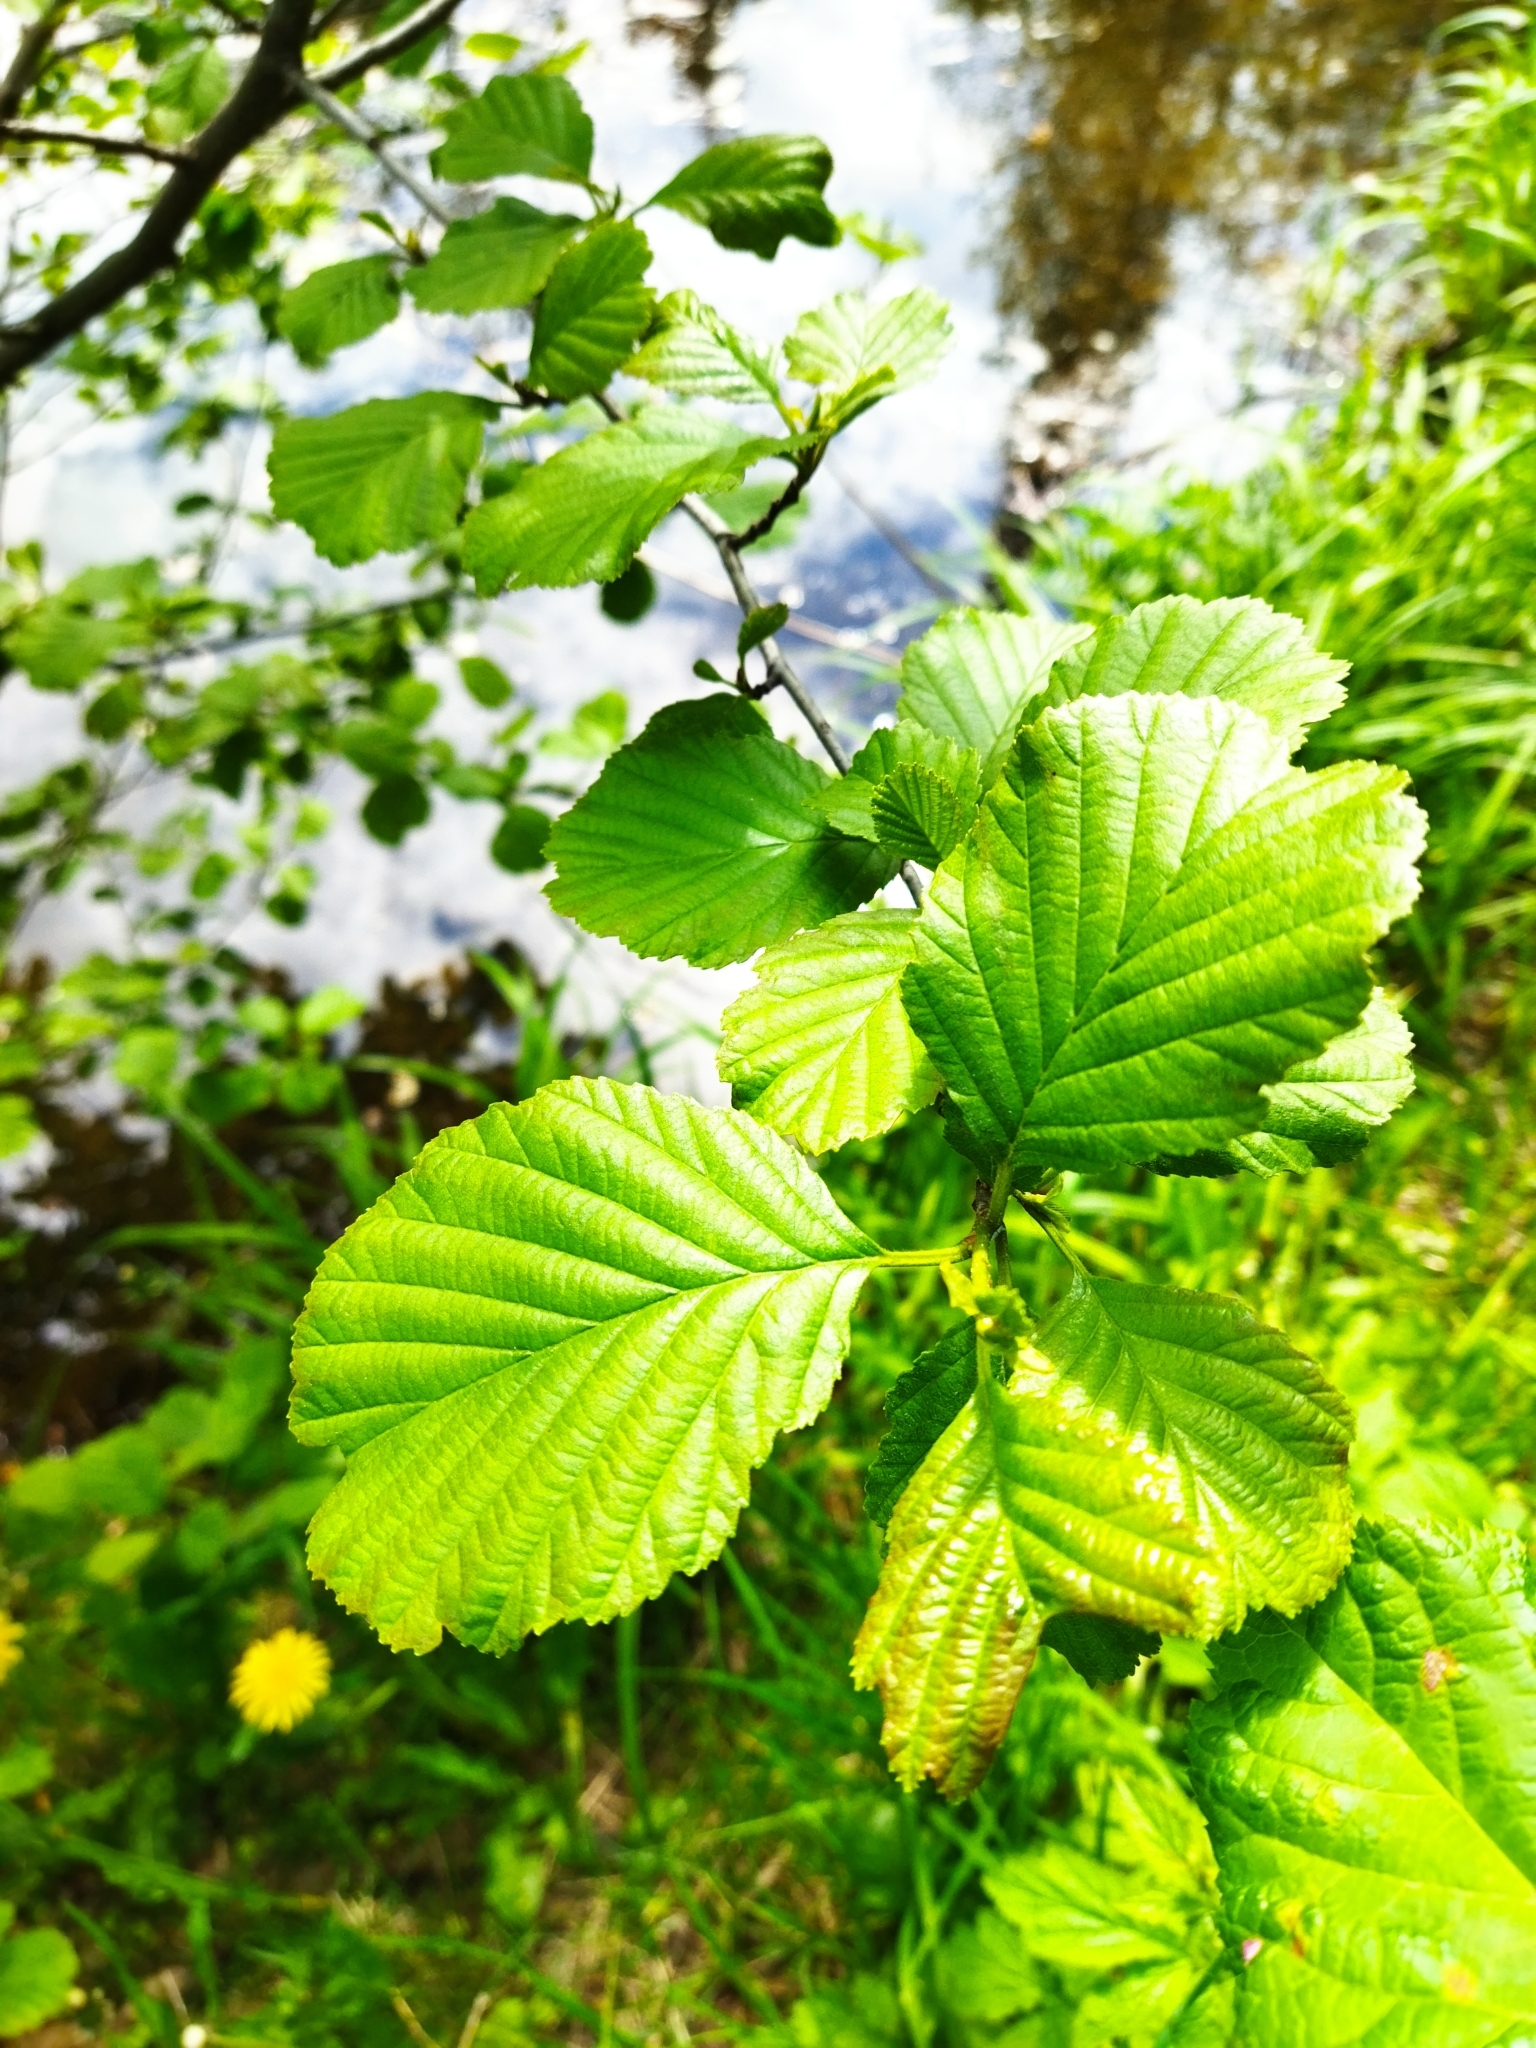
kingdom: Plantae
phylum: Tracheophyta
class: Magnoliopsida
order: Fagales
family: Betulaceae
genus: Alnus
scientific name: Alnus glutinosa
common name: Black alder
